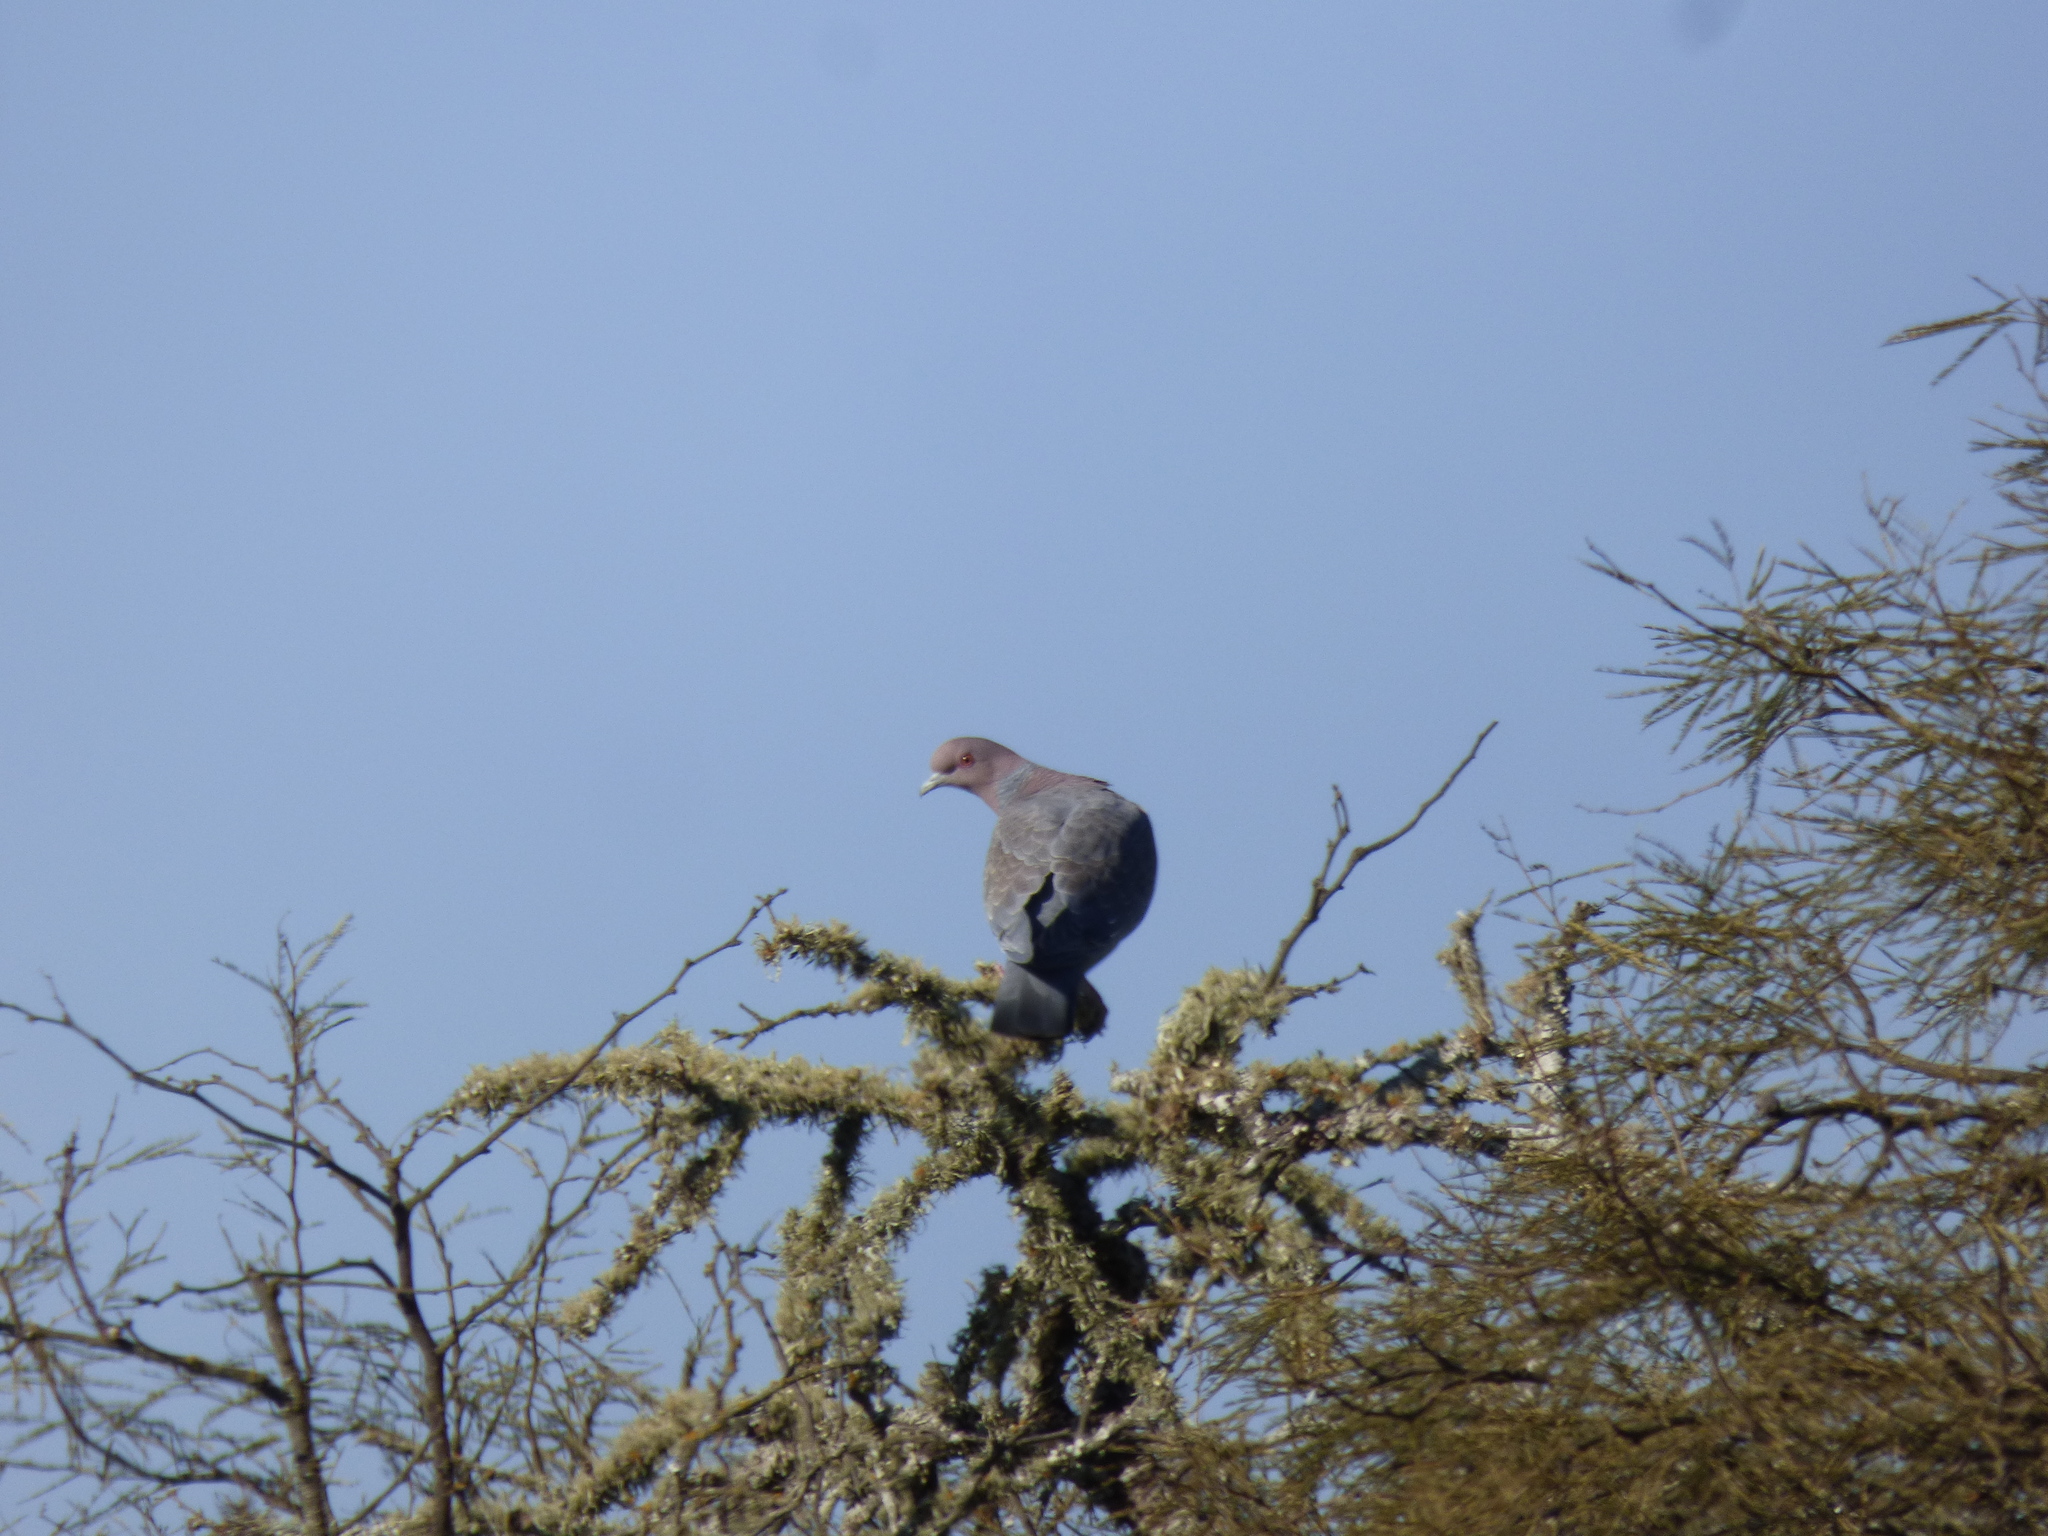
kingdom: Animalia
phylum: Chordata
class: Aves
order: Columbiformes
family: Columbidae
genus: Patagioenas
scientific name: Patagioenas picazuro
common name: Picazuro pigeon
